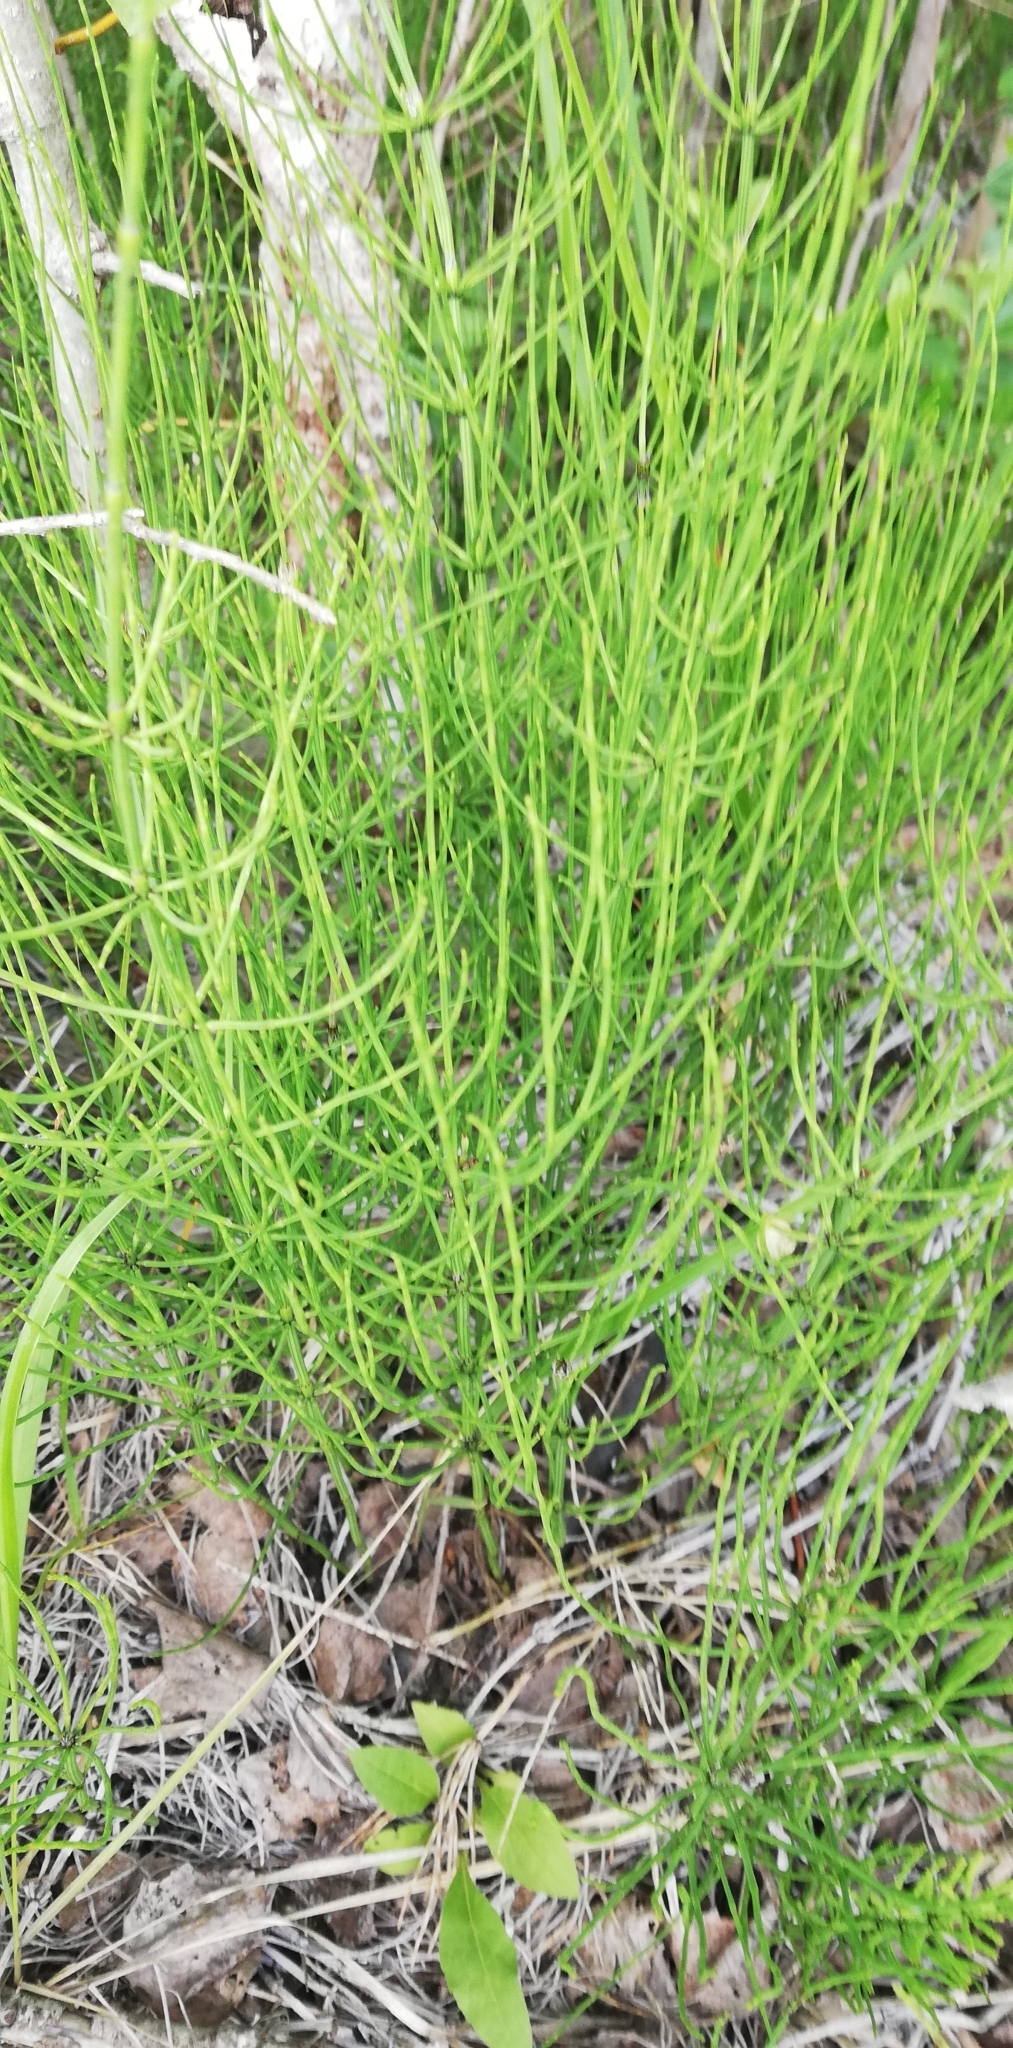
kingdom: Plantae
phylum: Tracheophyta
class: Polypodiopsida
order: Equisetales
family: Equisetaceae
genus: Equisetum
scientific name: Equisetum palustre
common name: Marsh horsetail
